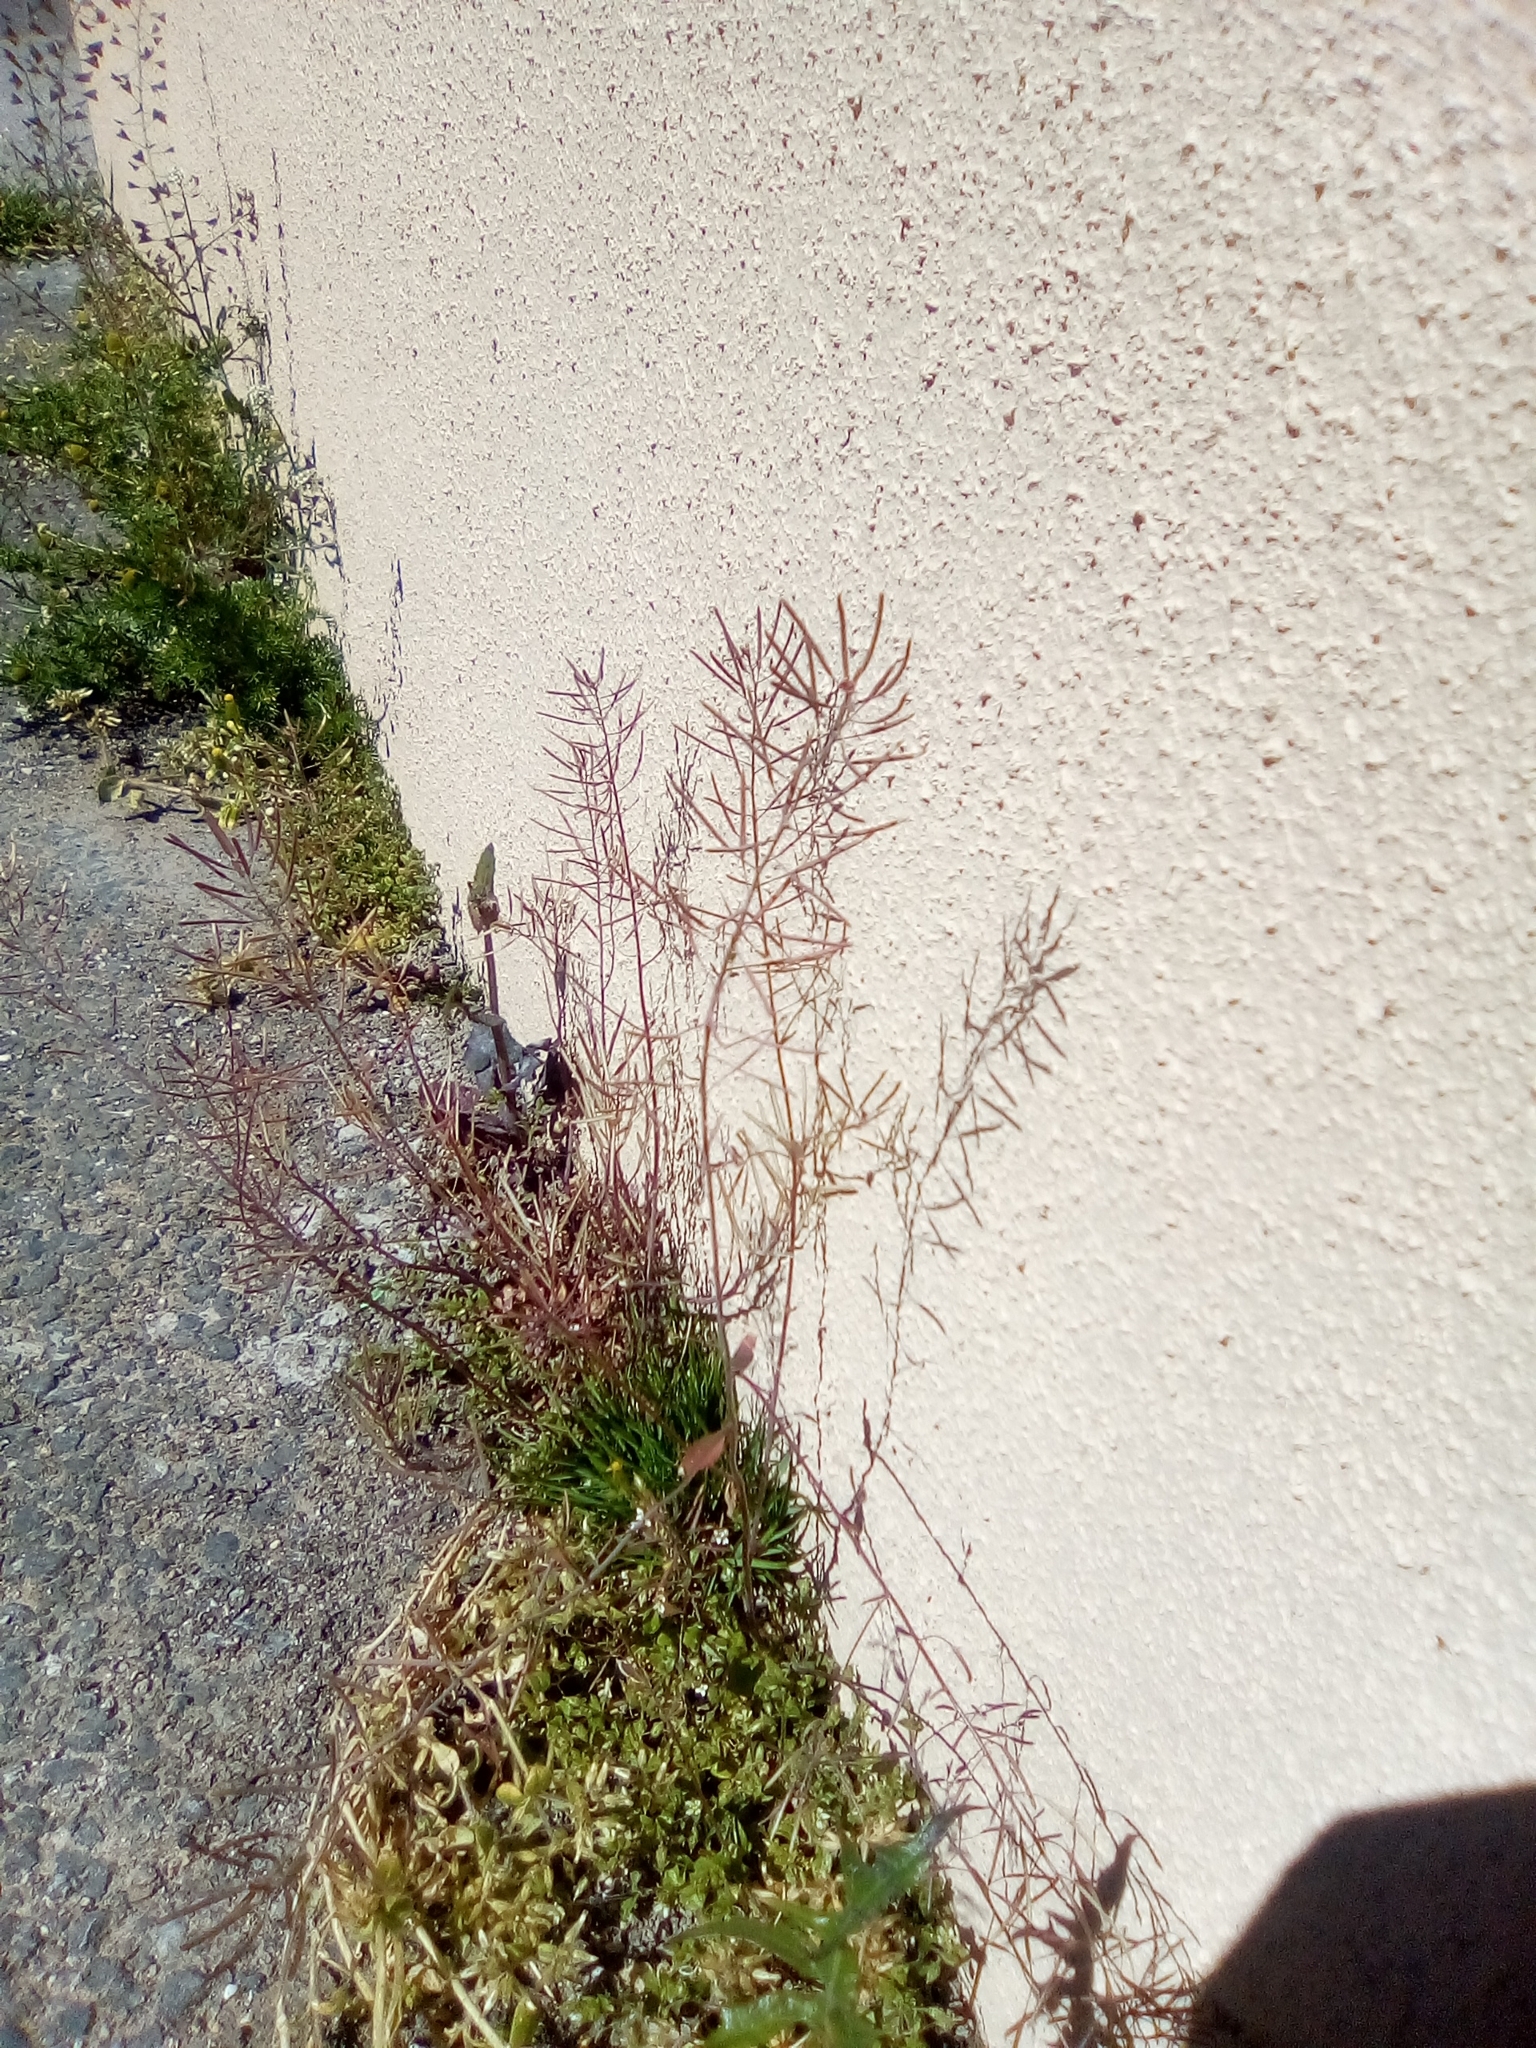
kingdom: Plantae
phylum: Tracheophyta
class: Magnoliopsida
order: Brassicales
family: Brassicaceae
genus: Arabidopsis
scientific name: Arabidopsis thaliana
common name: Thale cress
